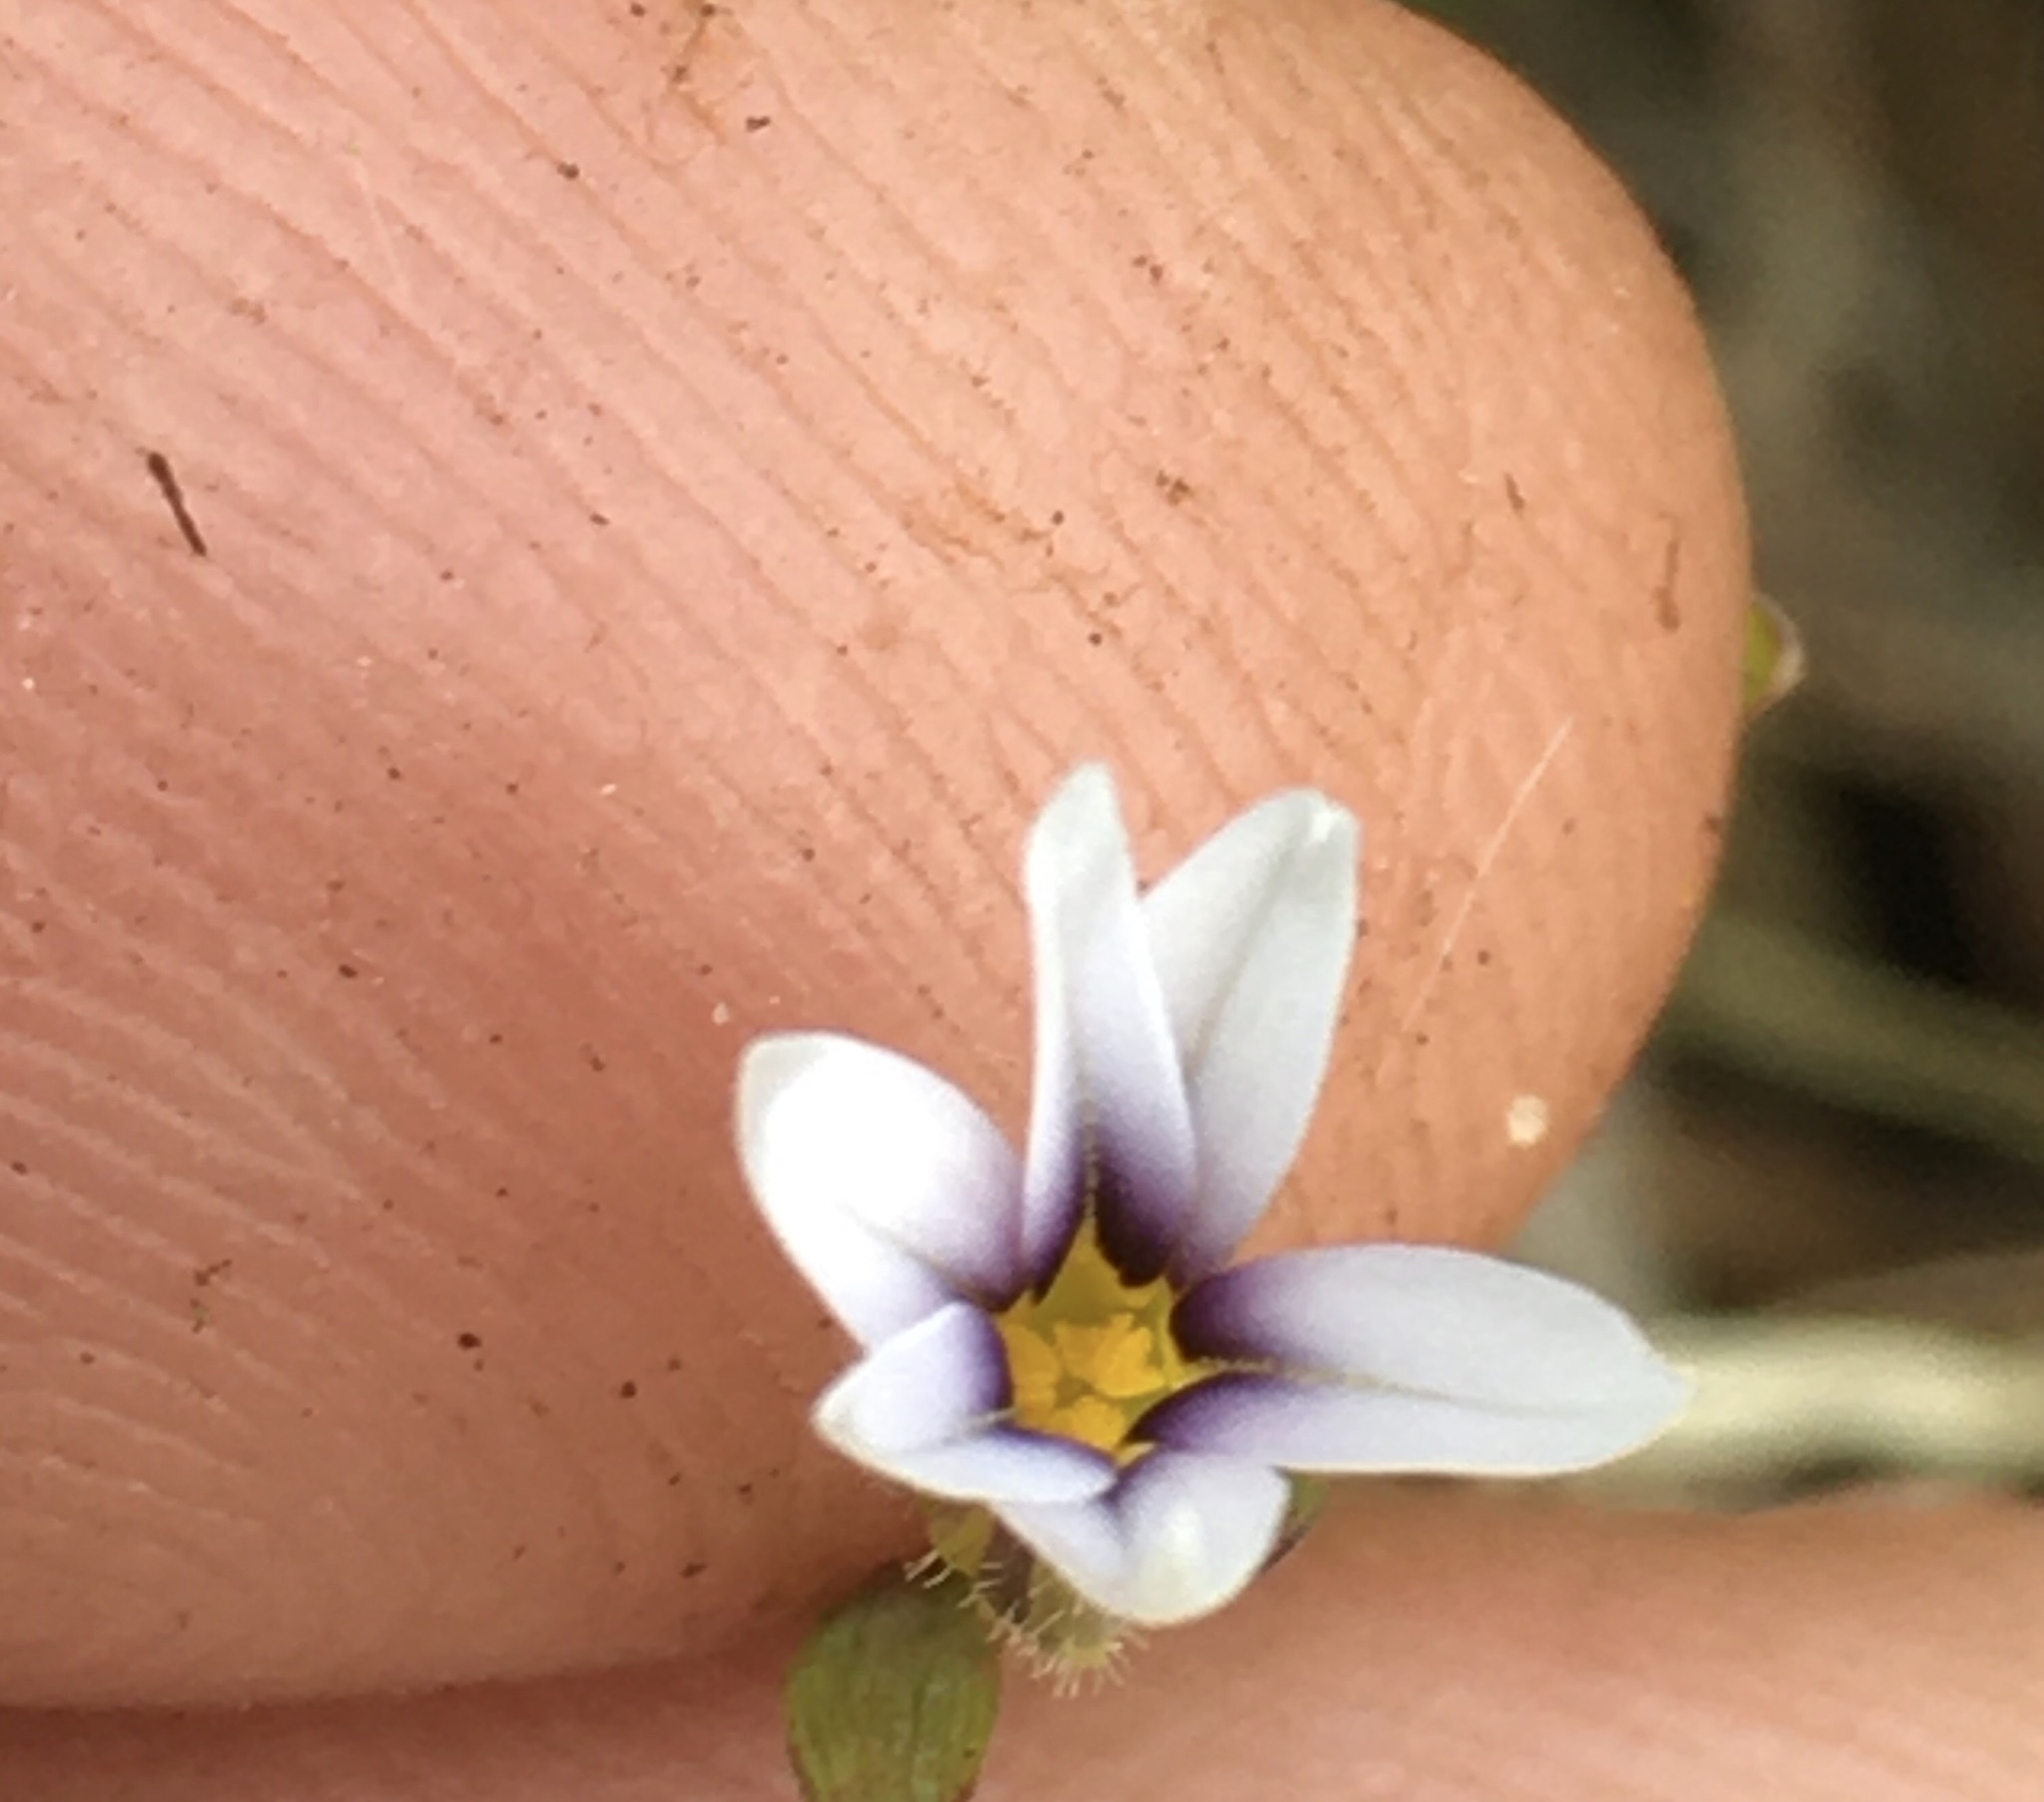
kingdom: Plantae
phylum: Tracheophyta
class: Liliopsida
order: Asparagales
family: Iridaceae
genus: Sisyrinchium
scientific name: Sisyrinchium micranthum
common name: Bermuda pigroot
